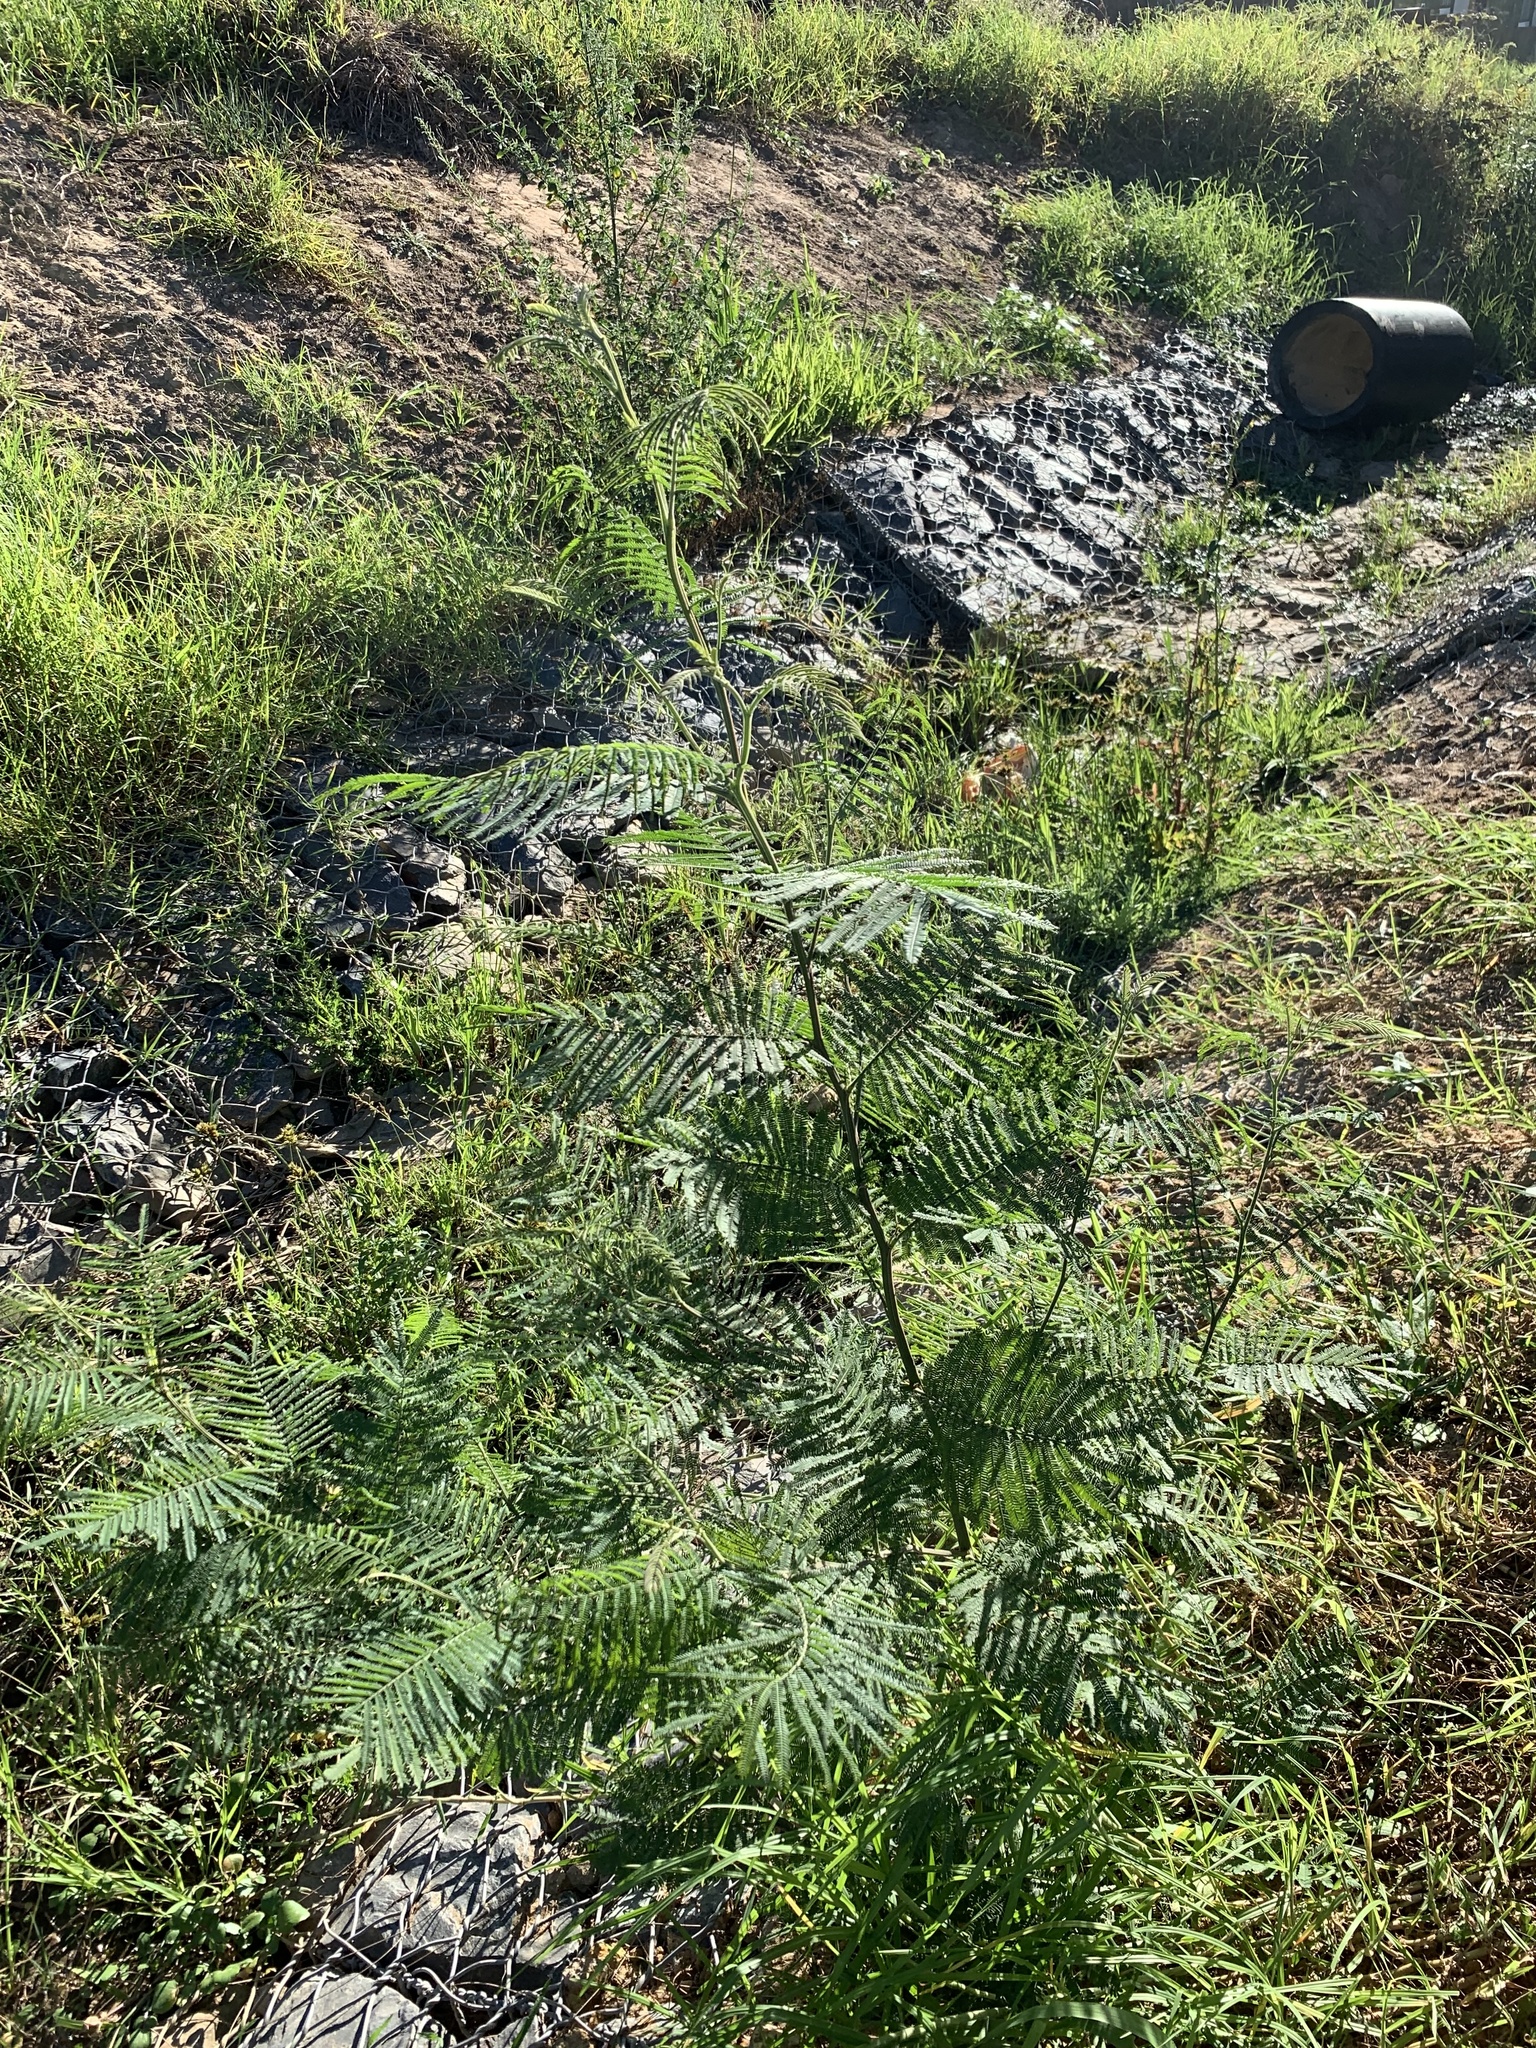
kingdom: Plantae
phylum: Tracheophyta
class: Magnoliopsida
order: Fabales
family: Fabaceae
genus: Acacia
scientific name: Acacia mearnsii
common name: Black wattle
